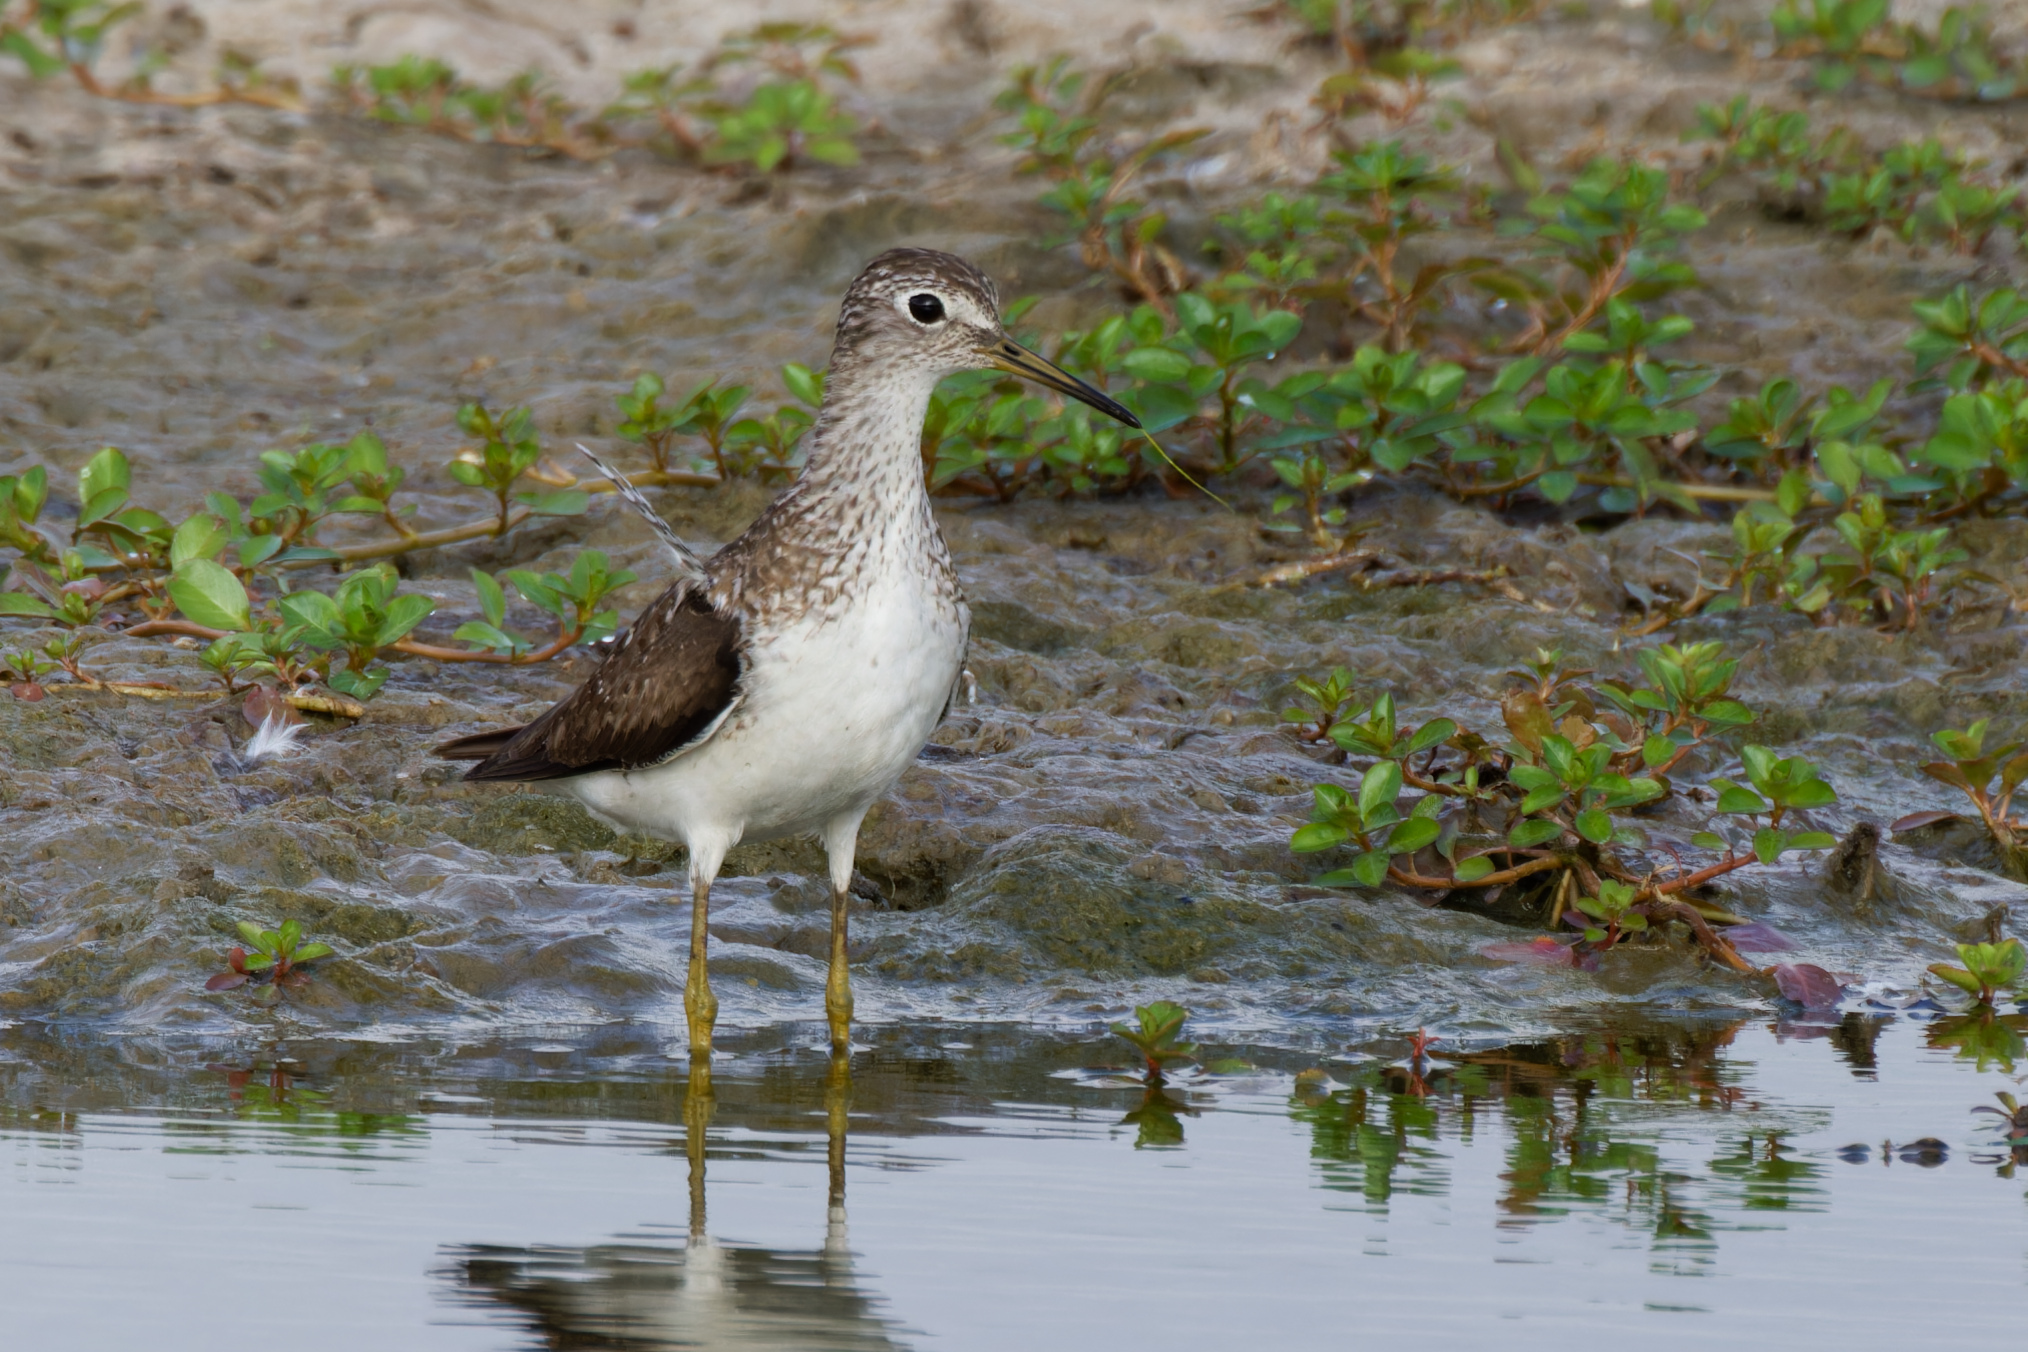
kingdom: Animalia
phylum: Chordata
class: Aves
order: Charadriiformes
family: Scolopacidae
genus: Tringa
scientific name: Tringa solitaria
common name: Solitary sandpiper
